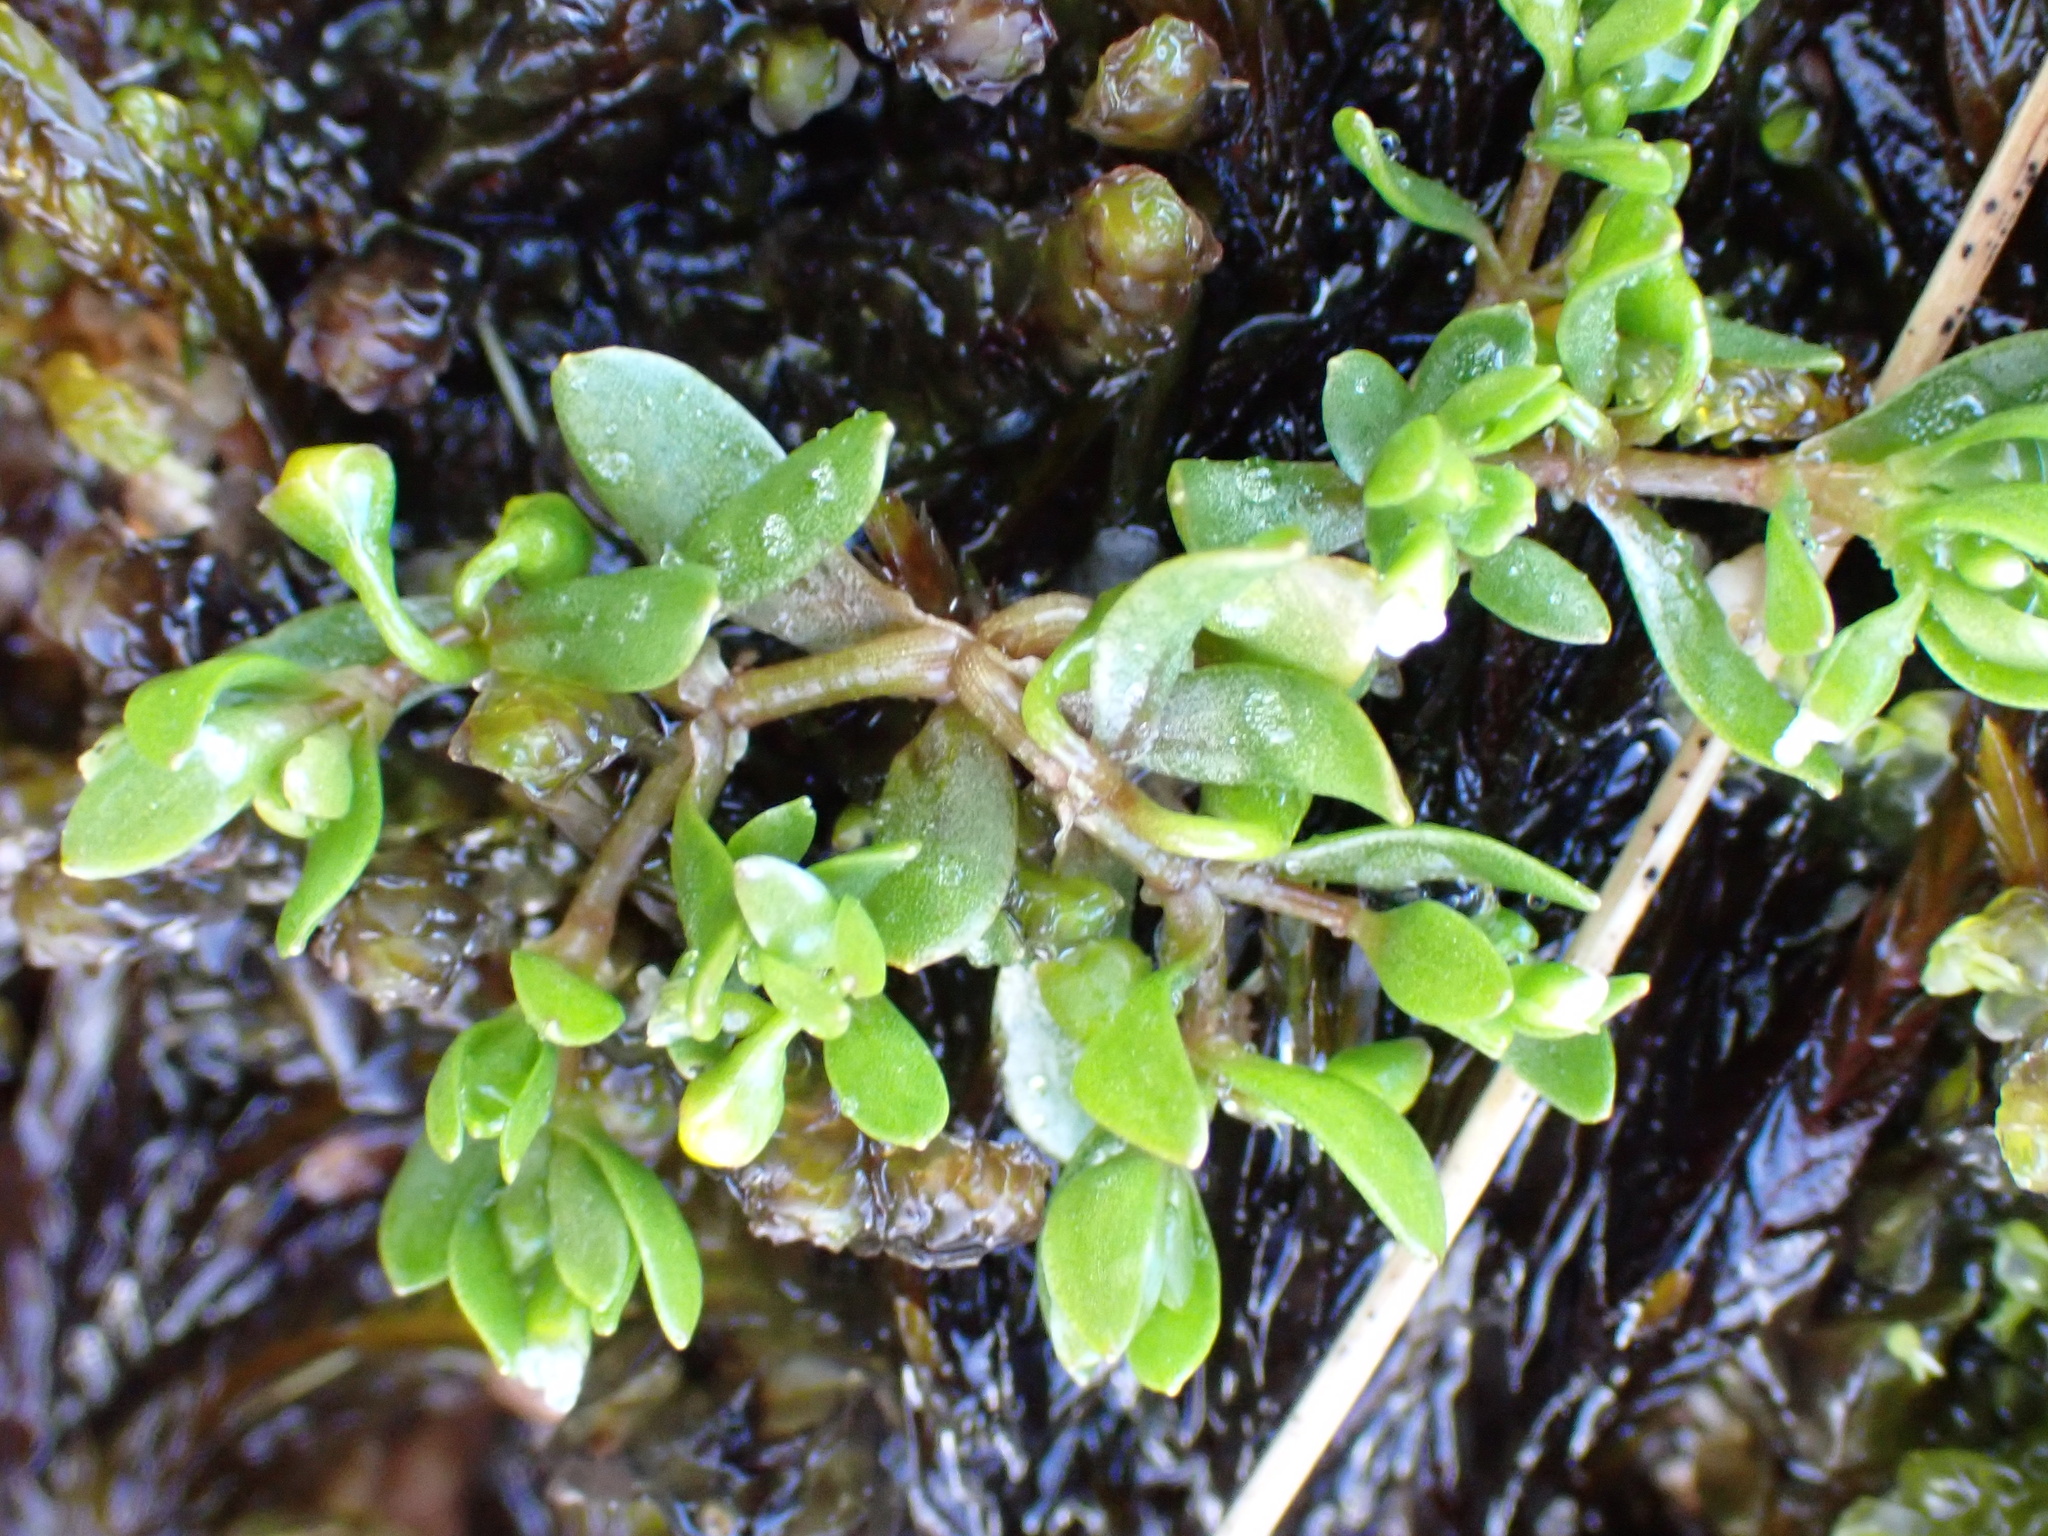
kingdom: Plantae
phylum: Tracheophyta
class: Magnoliopsida
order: Caryophyllales
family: Montiaceae
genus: Montia
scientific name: Montia fontana
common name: Blinks
